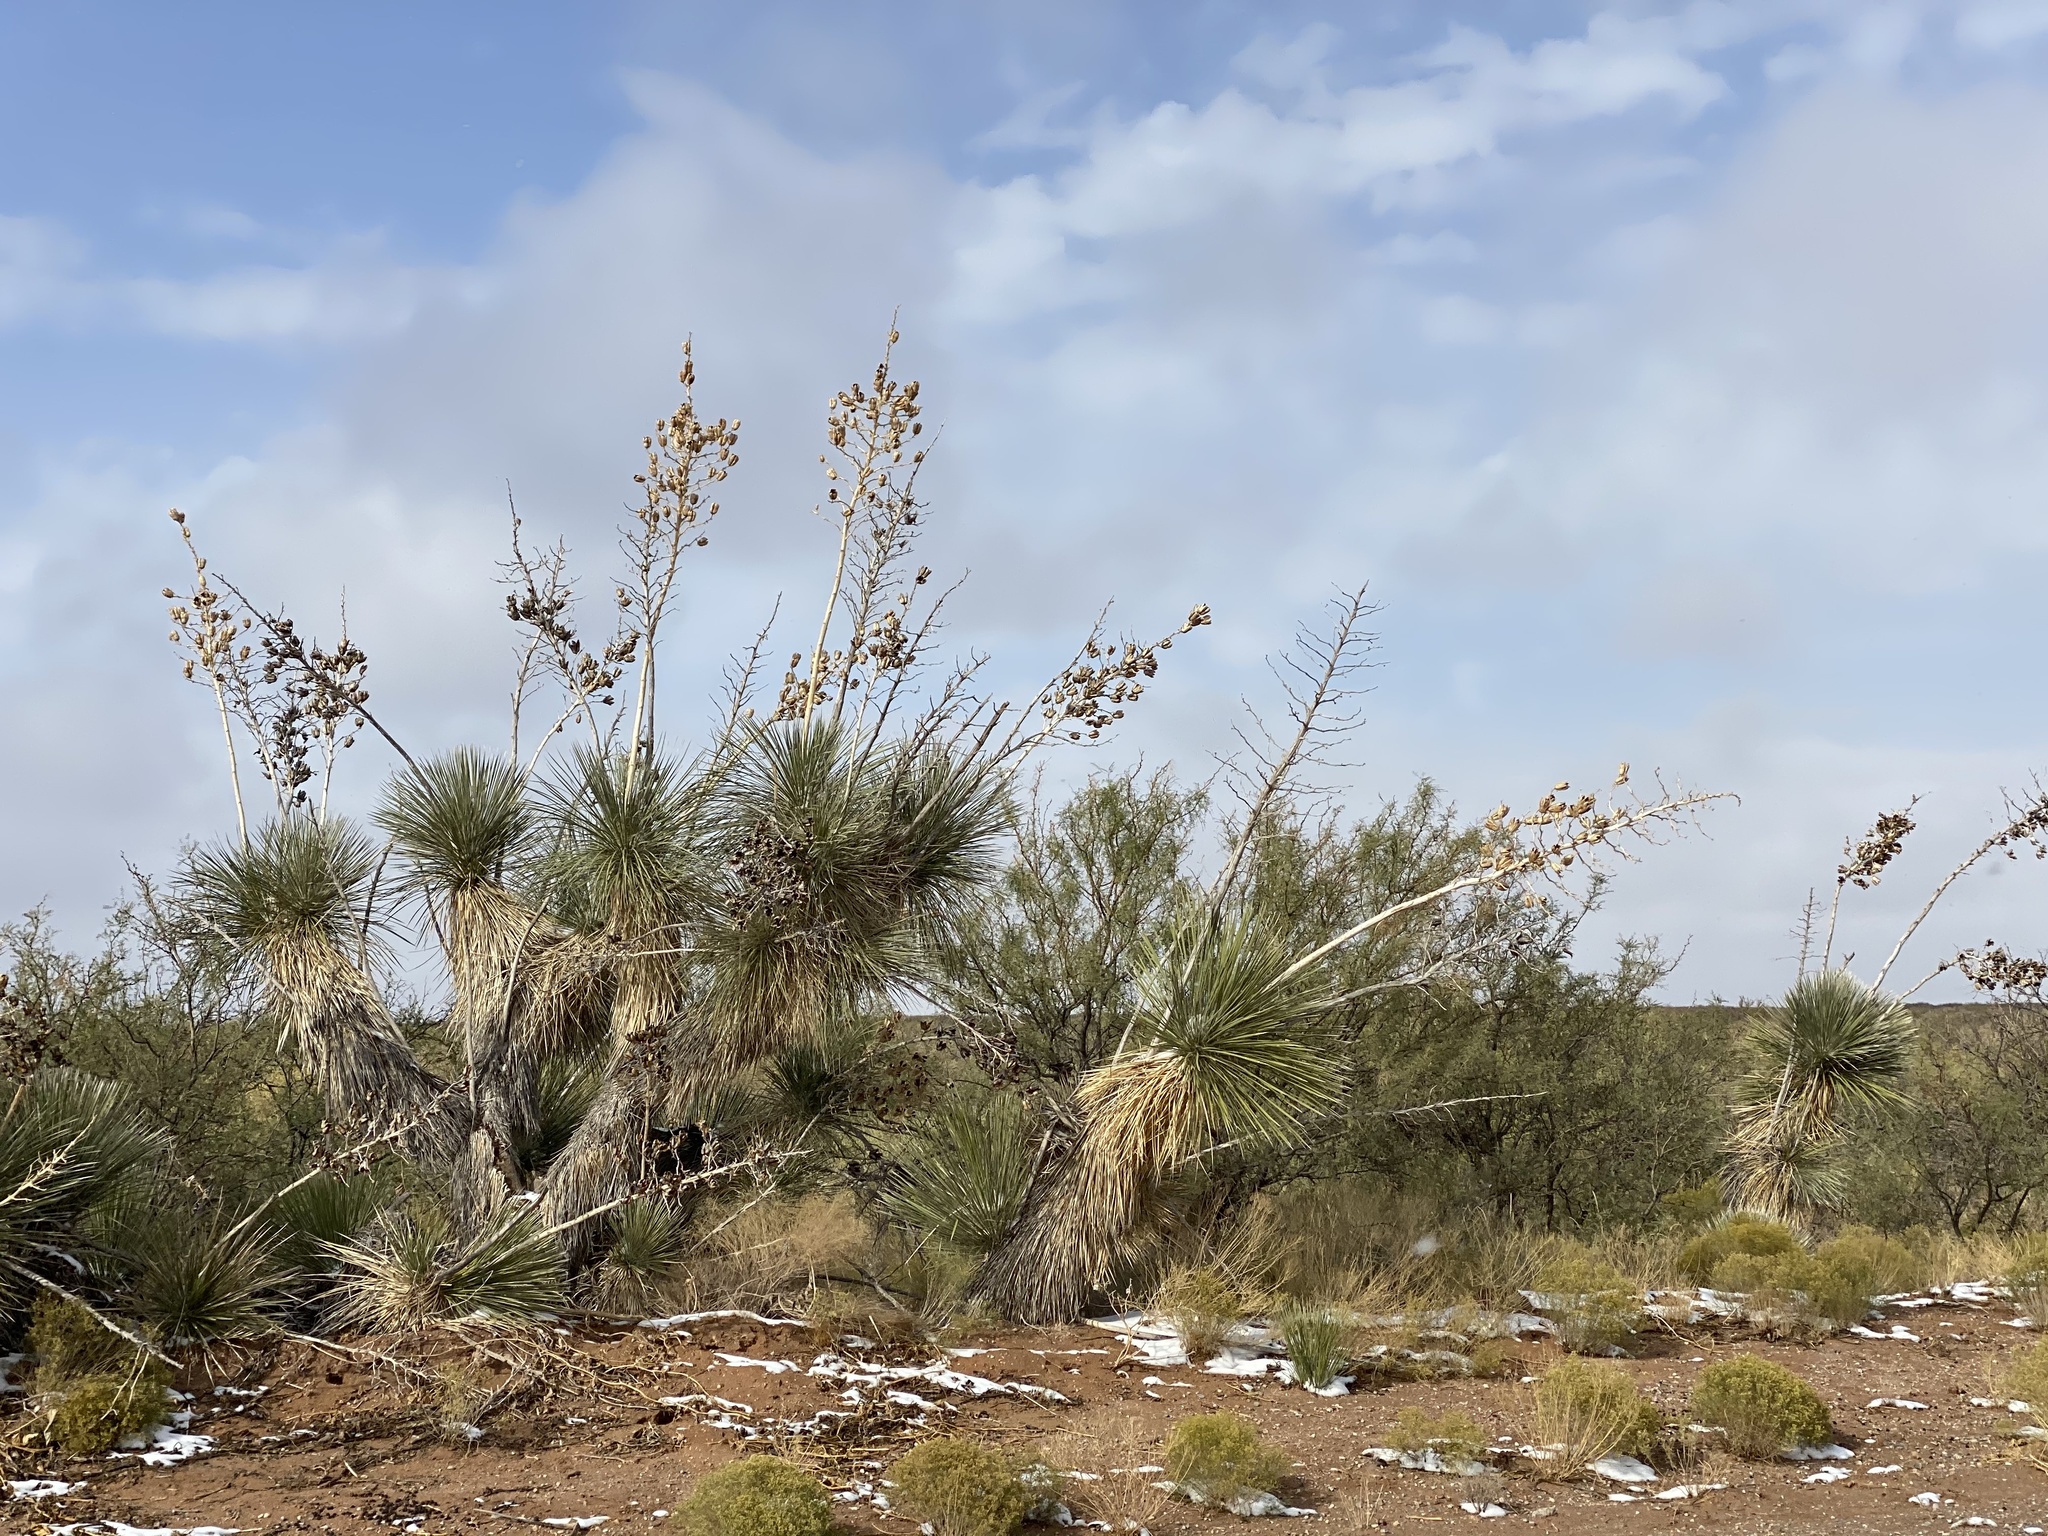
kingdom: Plantae
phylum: Tracheophyta
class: Liliopsida
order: Asparagales
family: Asparagaceae
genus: Yucca
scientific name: Yucca elata
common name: Palmella
